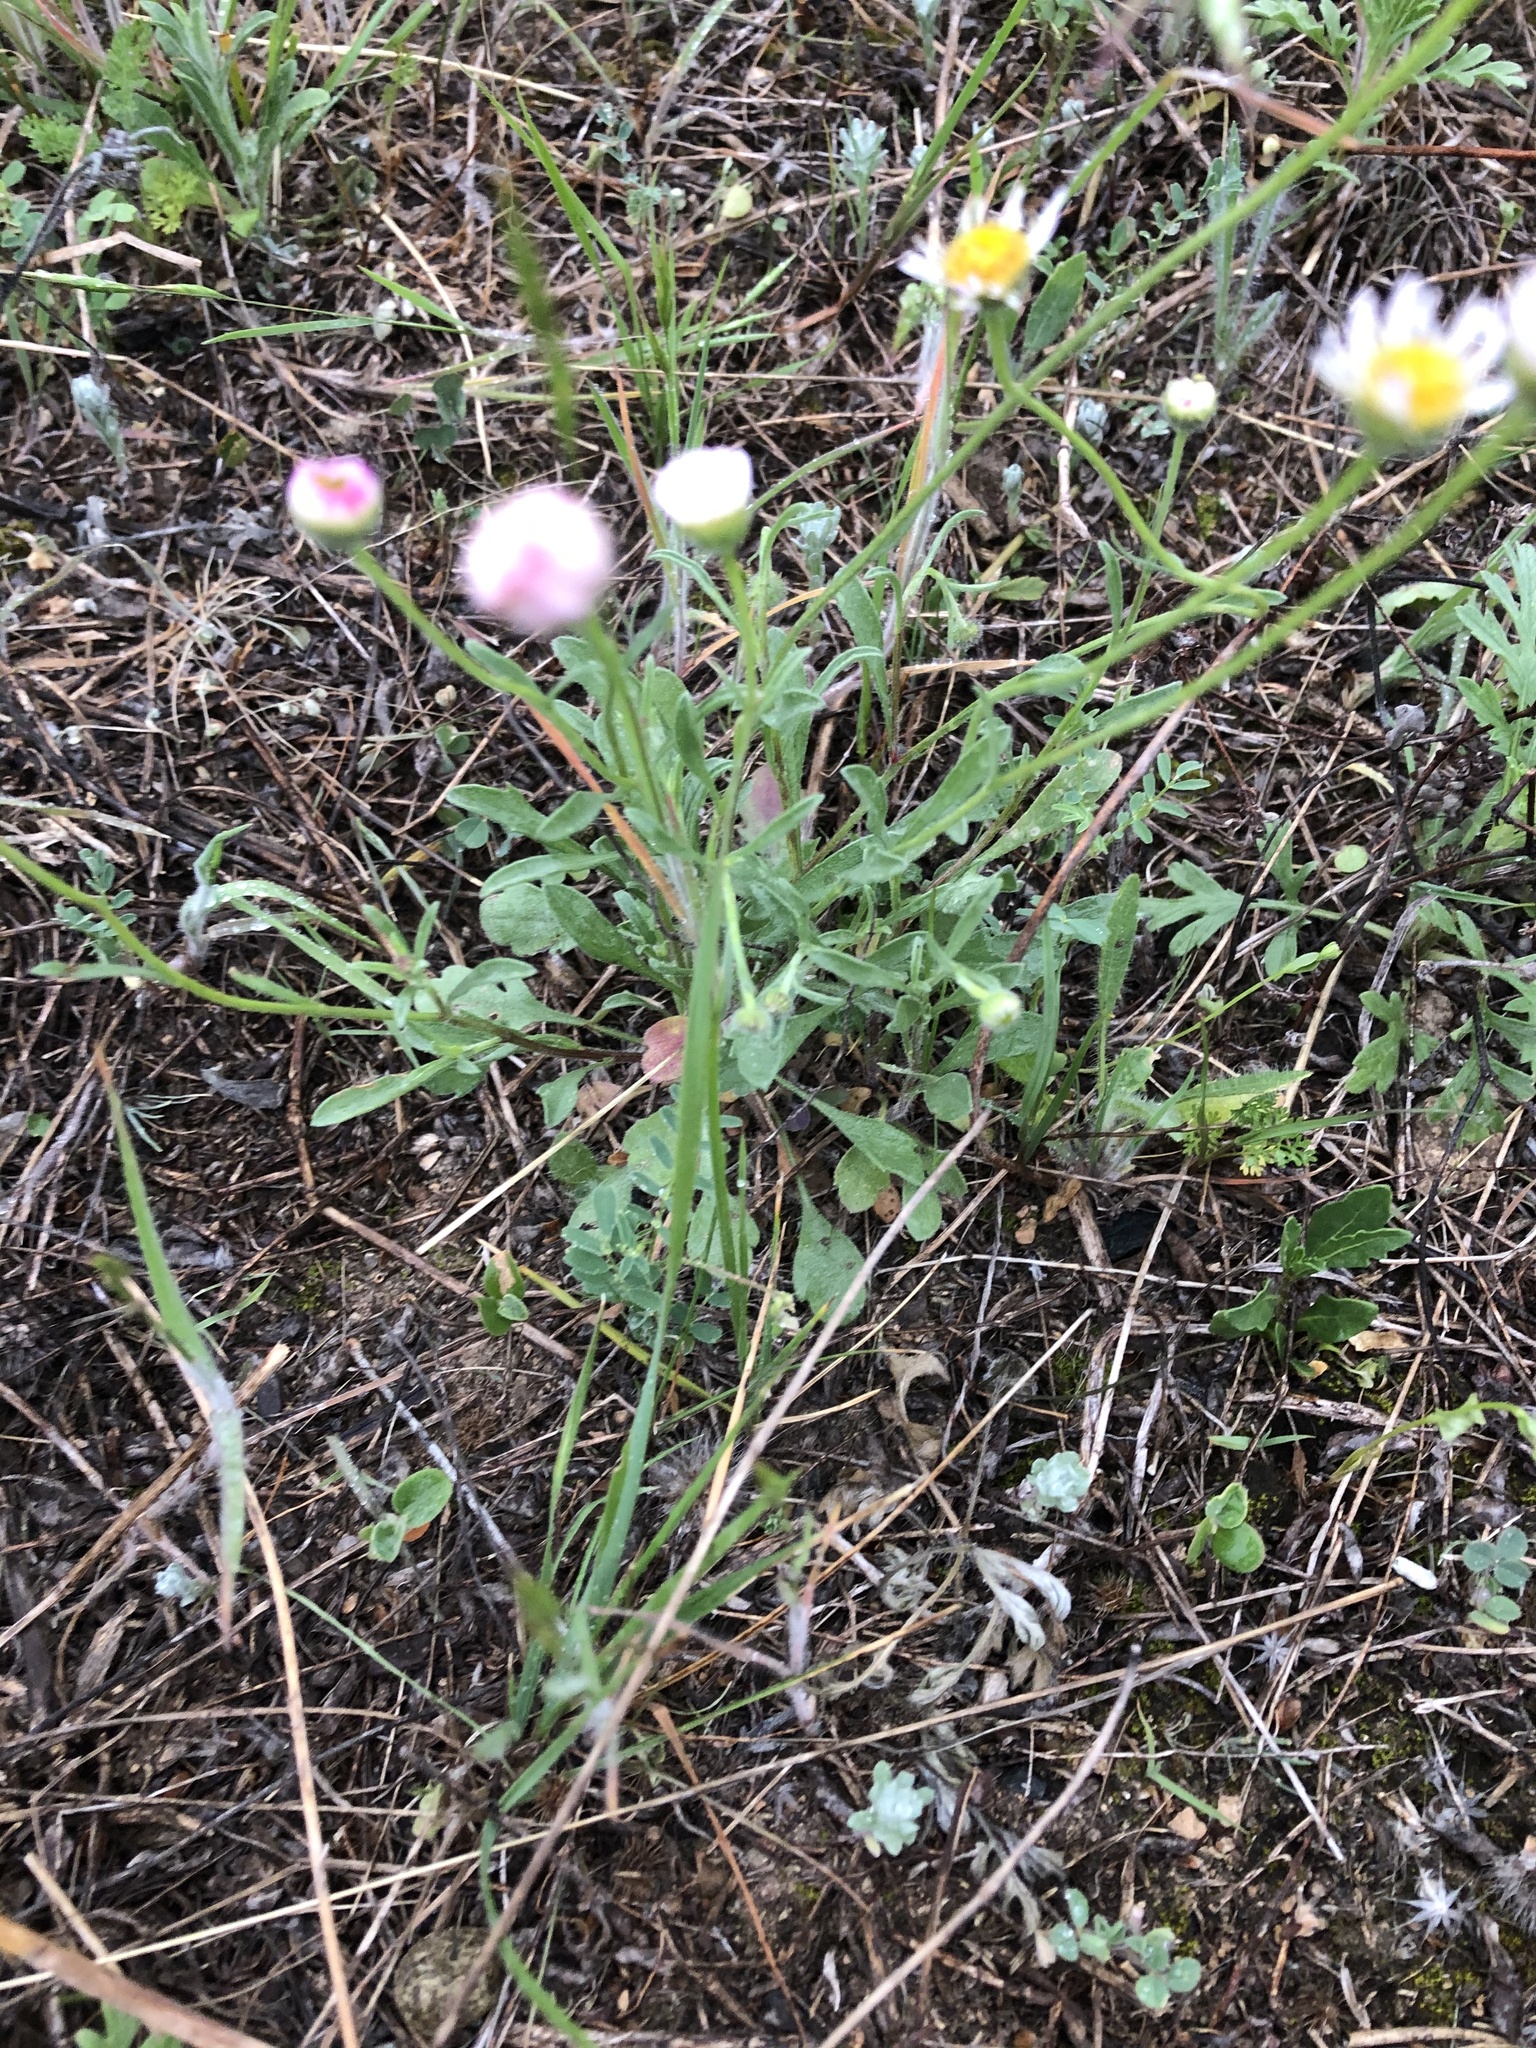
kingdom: Plantae
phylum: Tracheophyta
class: Magnoliopsida
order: Asterales
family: Asteraceae
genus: Erigeron
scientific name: Erigeron modestus
